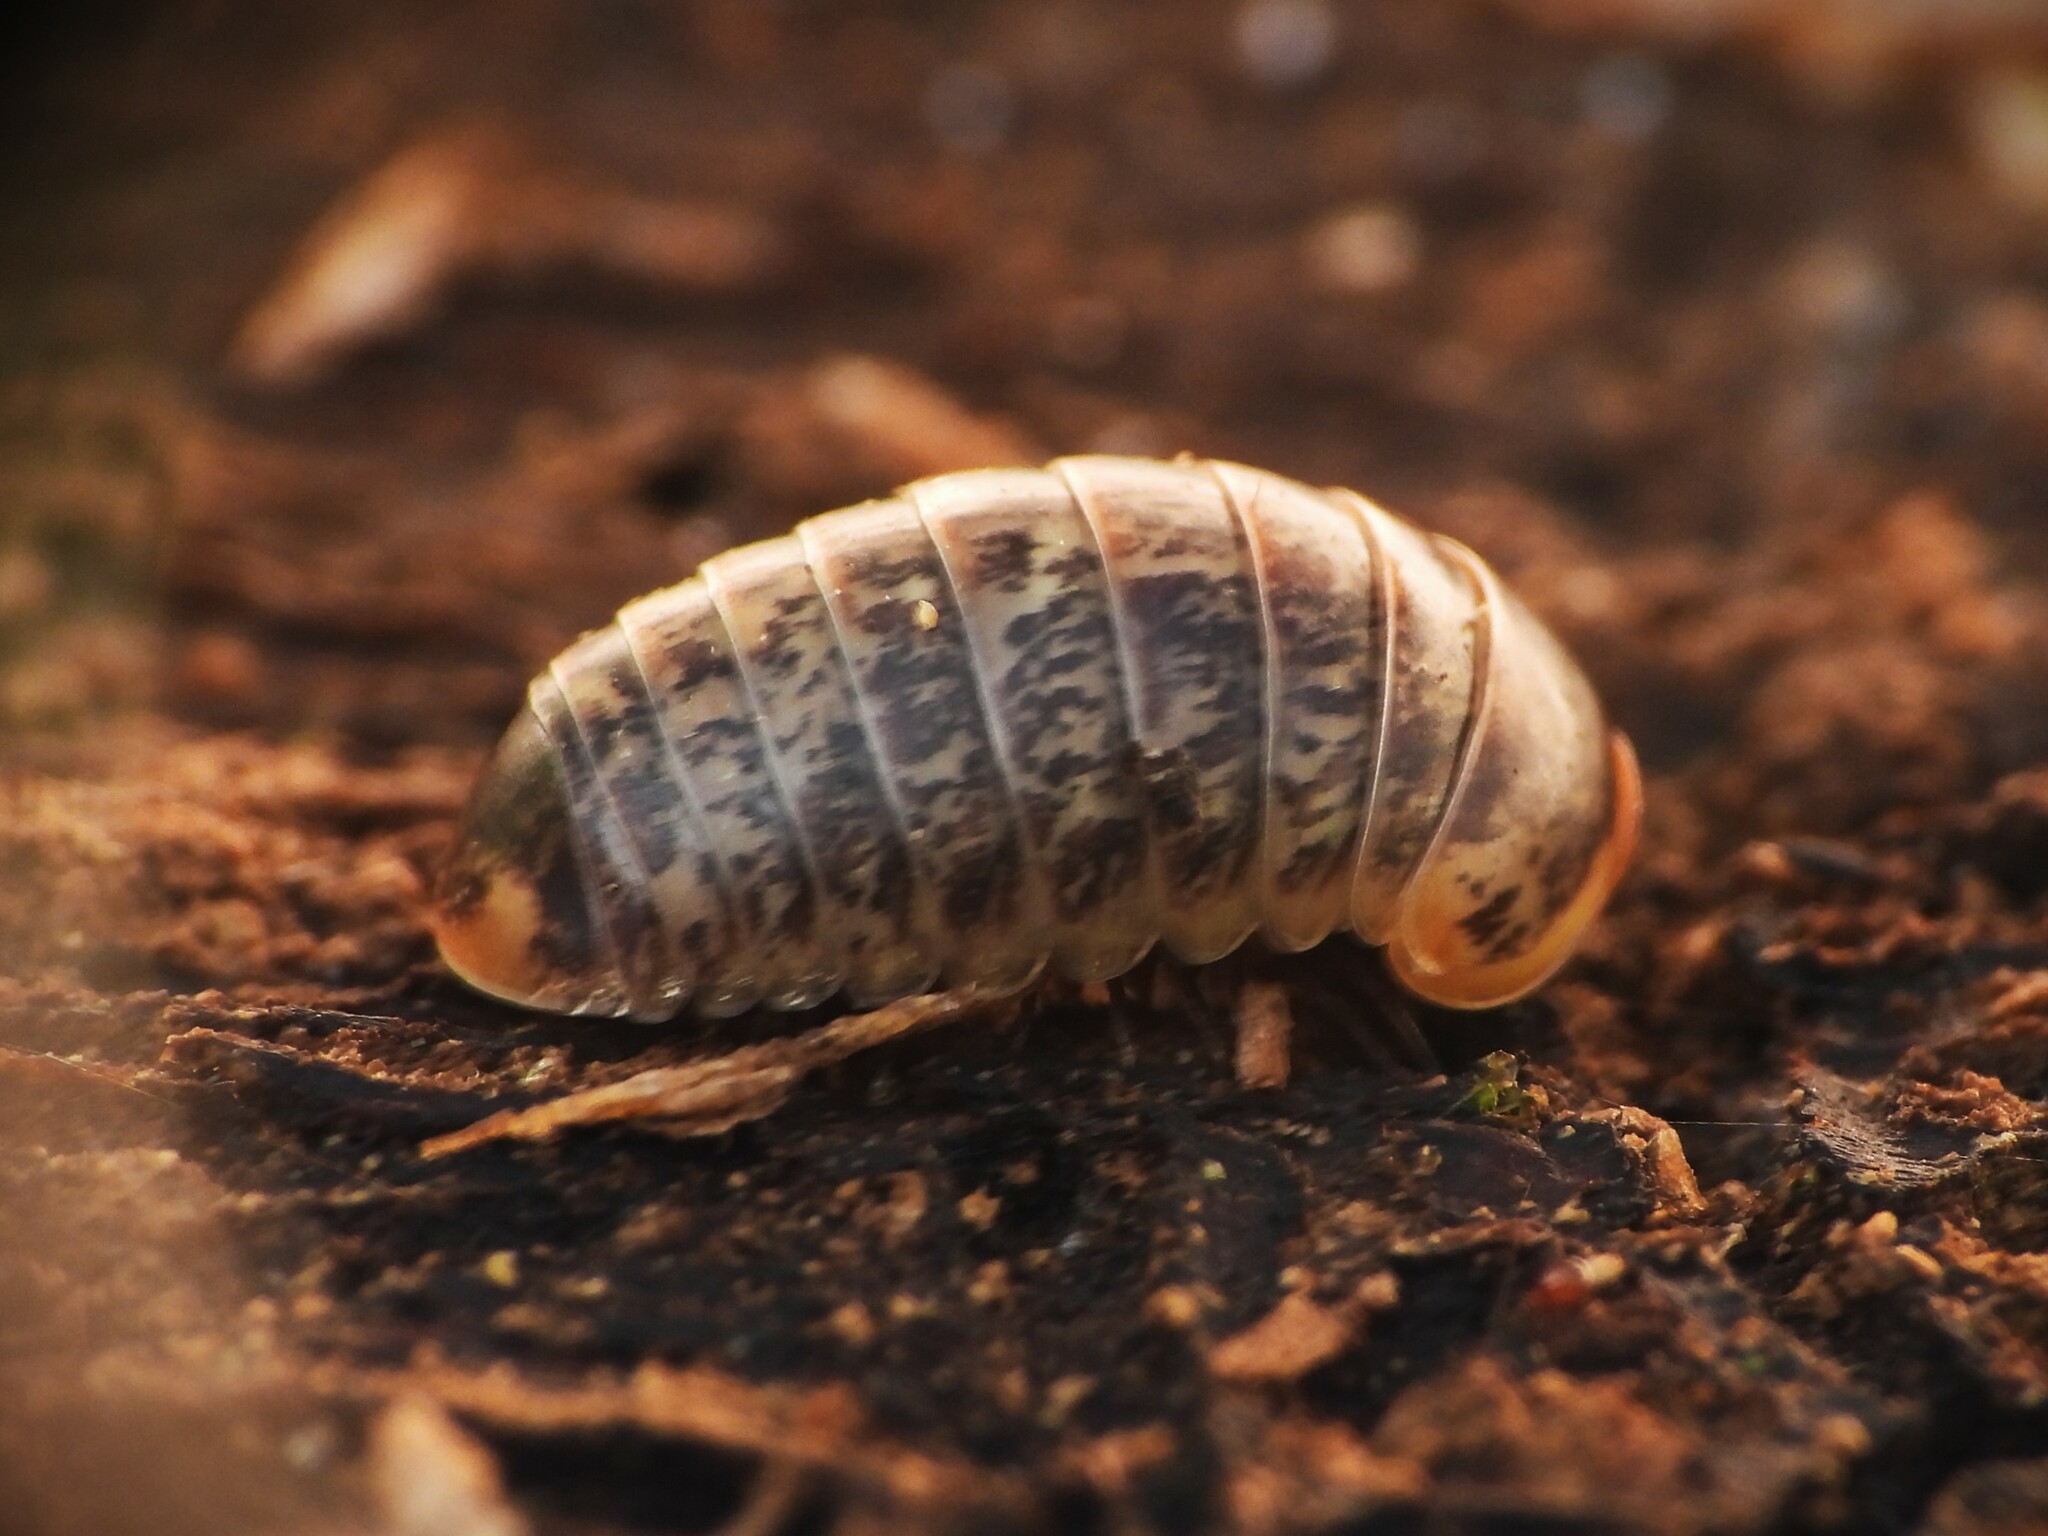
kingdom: Animalia
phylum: Arthropoda
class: Diplopoda
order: Glomerida
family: Glomeridae
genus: Glomeris
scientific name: Glomeris klugii
